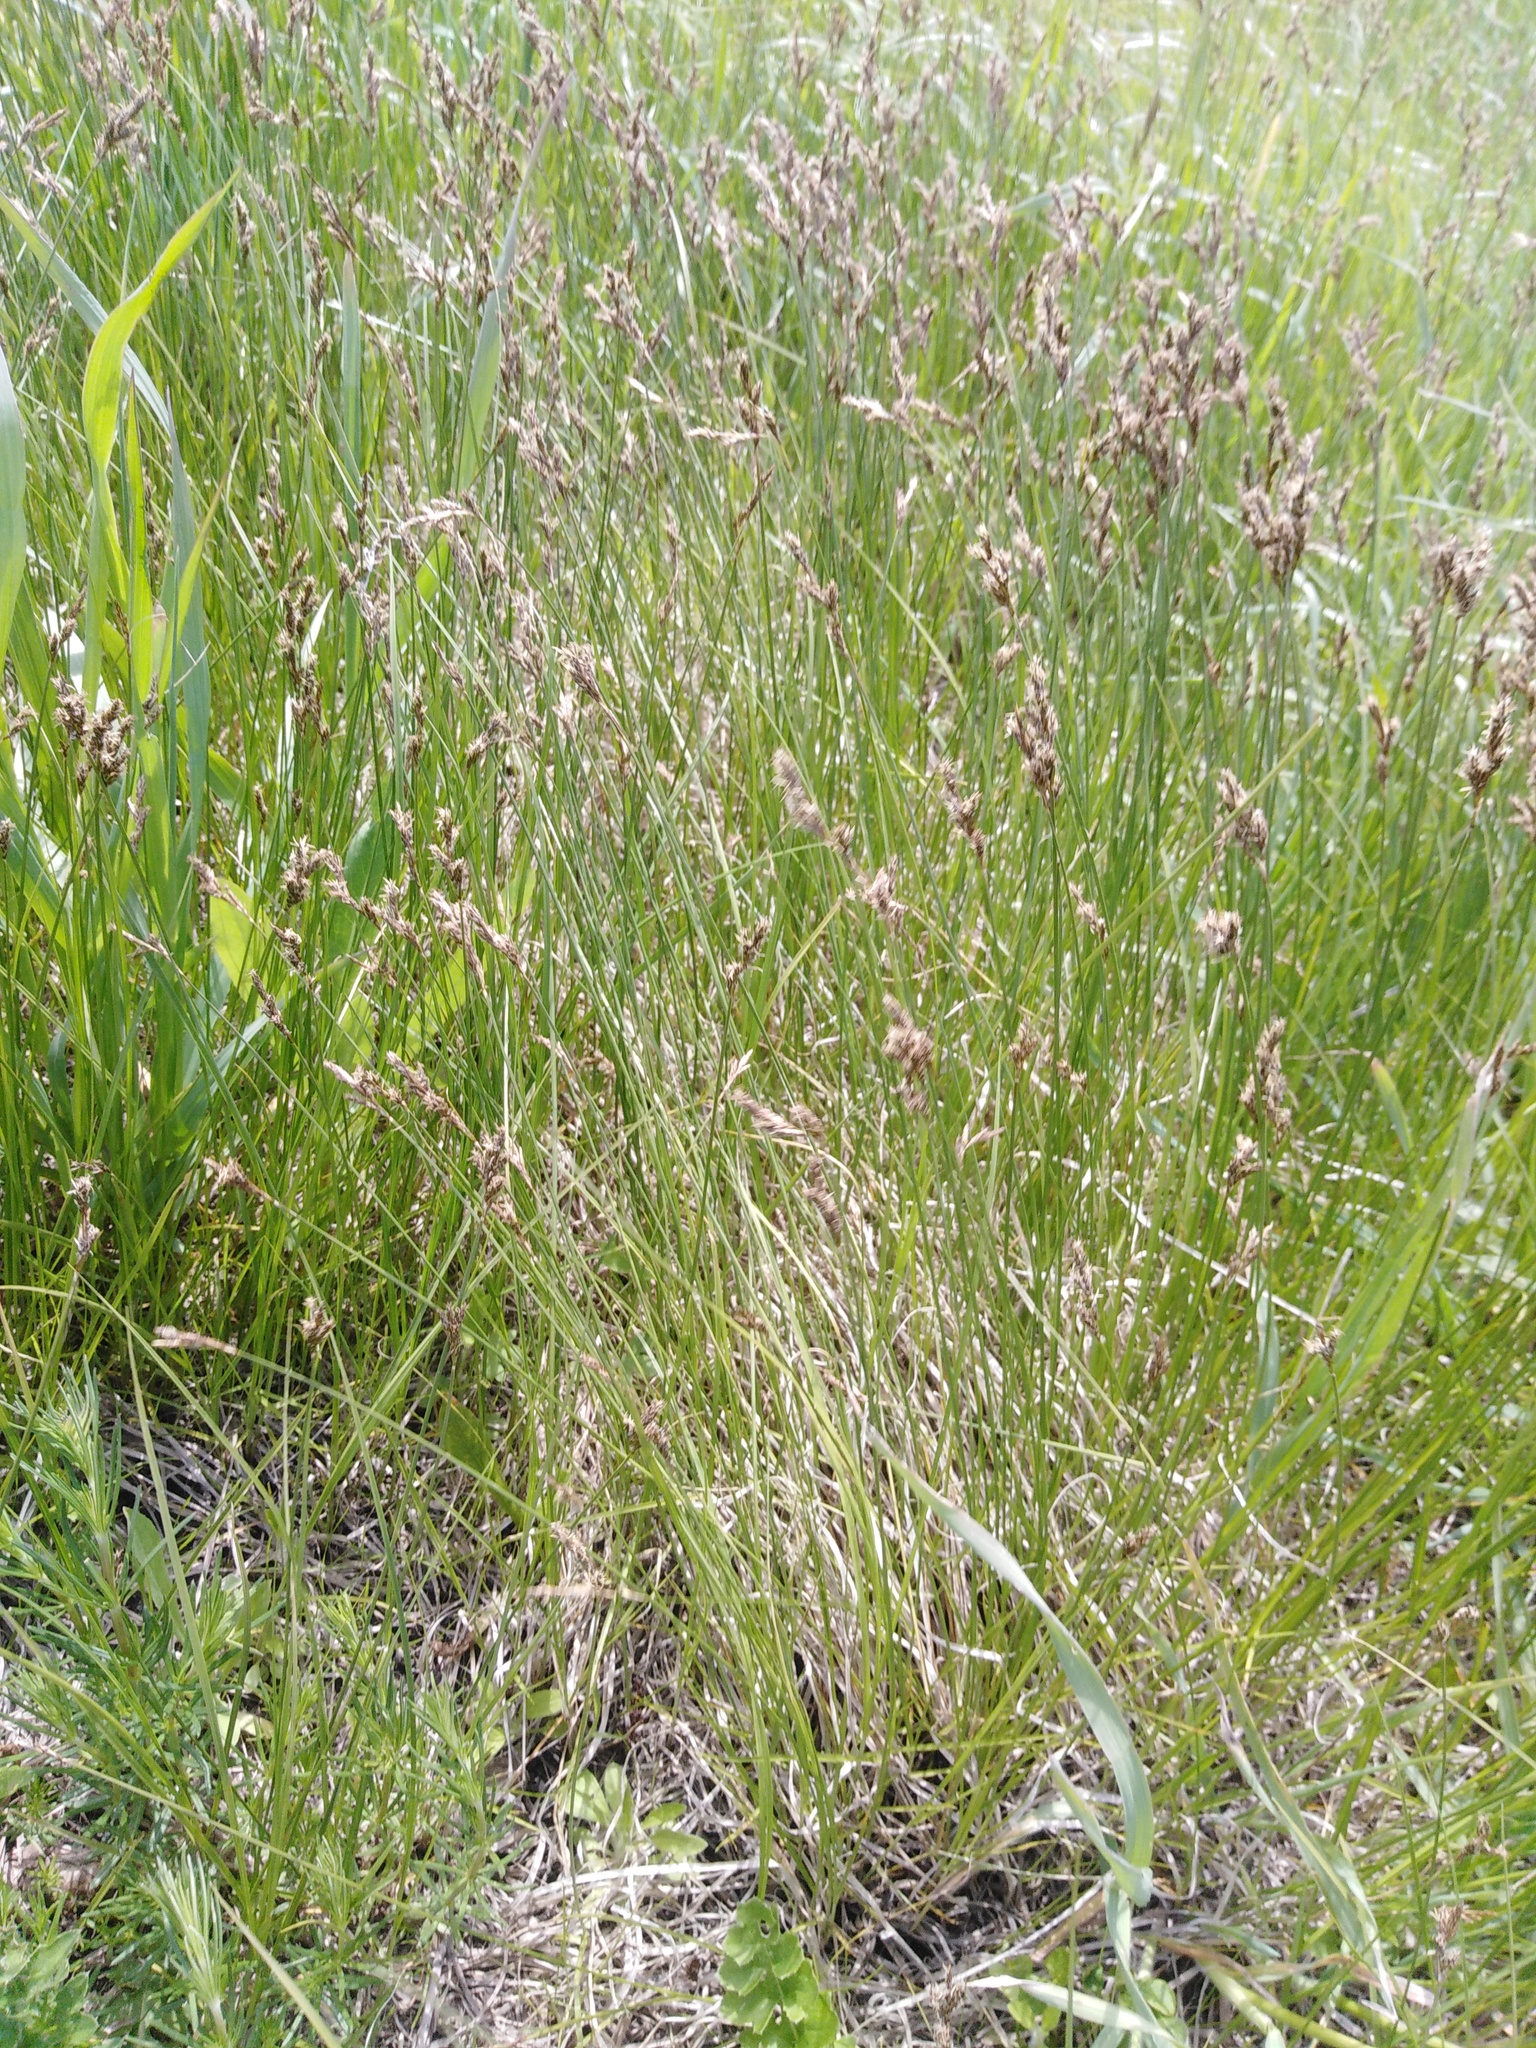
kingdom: Plantae
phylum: Tracheophyta
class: Liliopsida
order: Poales
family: Cyperaceae
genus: Carex
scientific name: Carex praecox
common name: Early sedge
